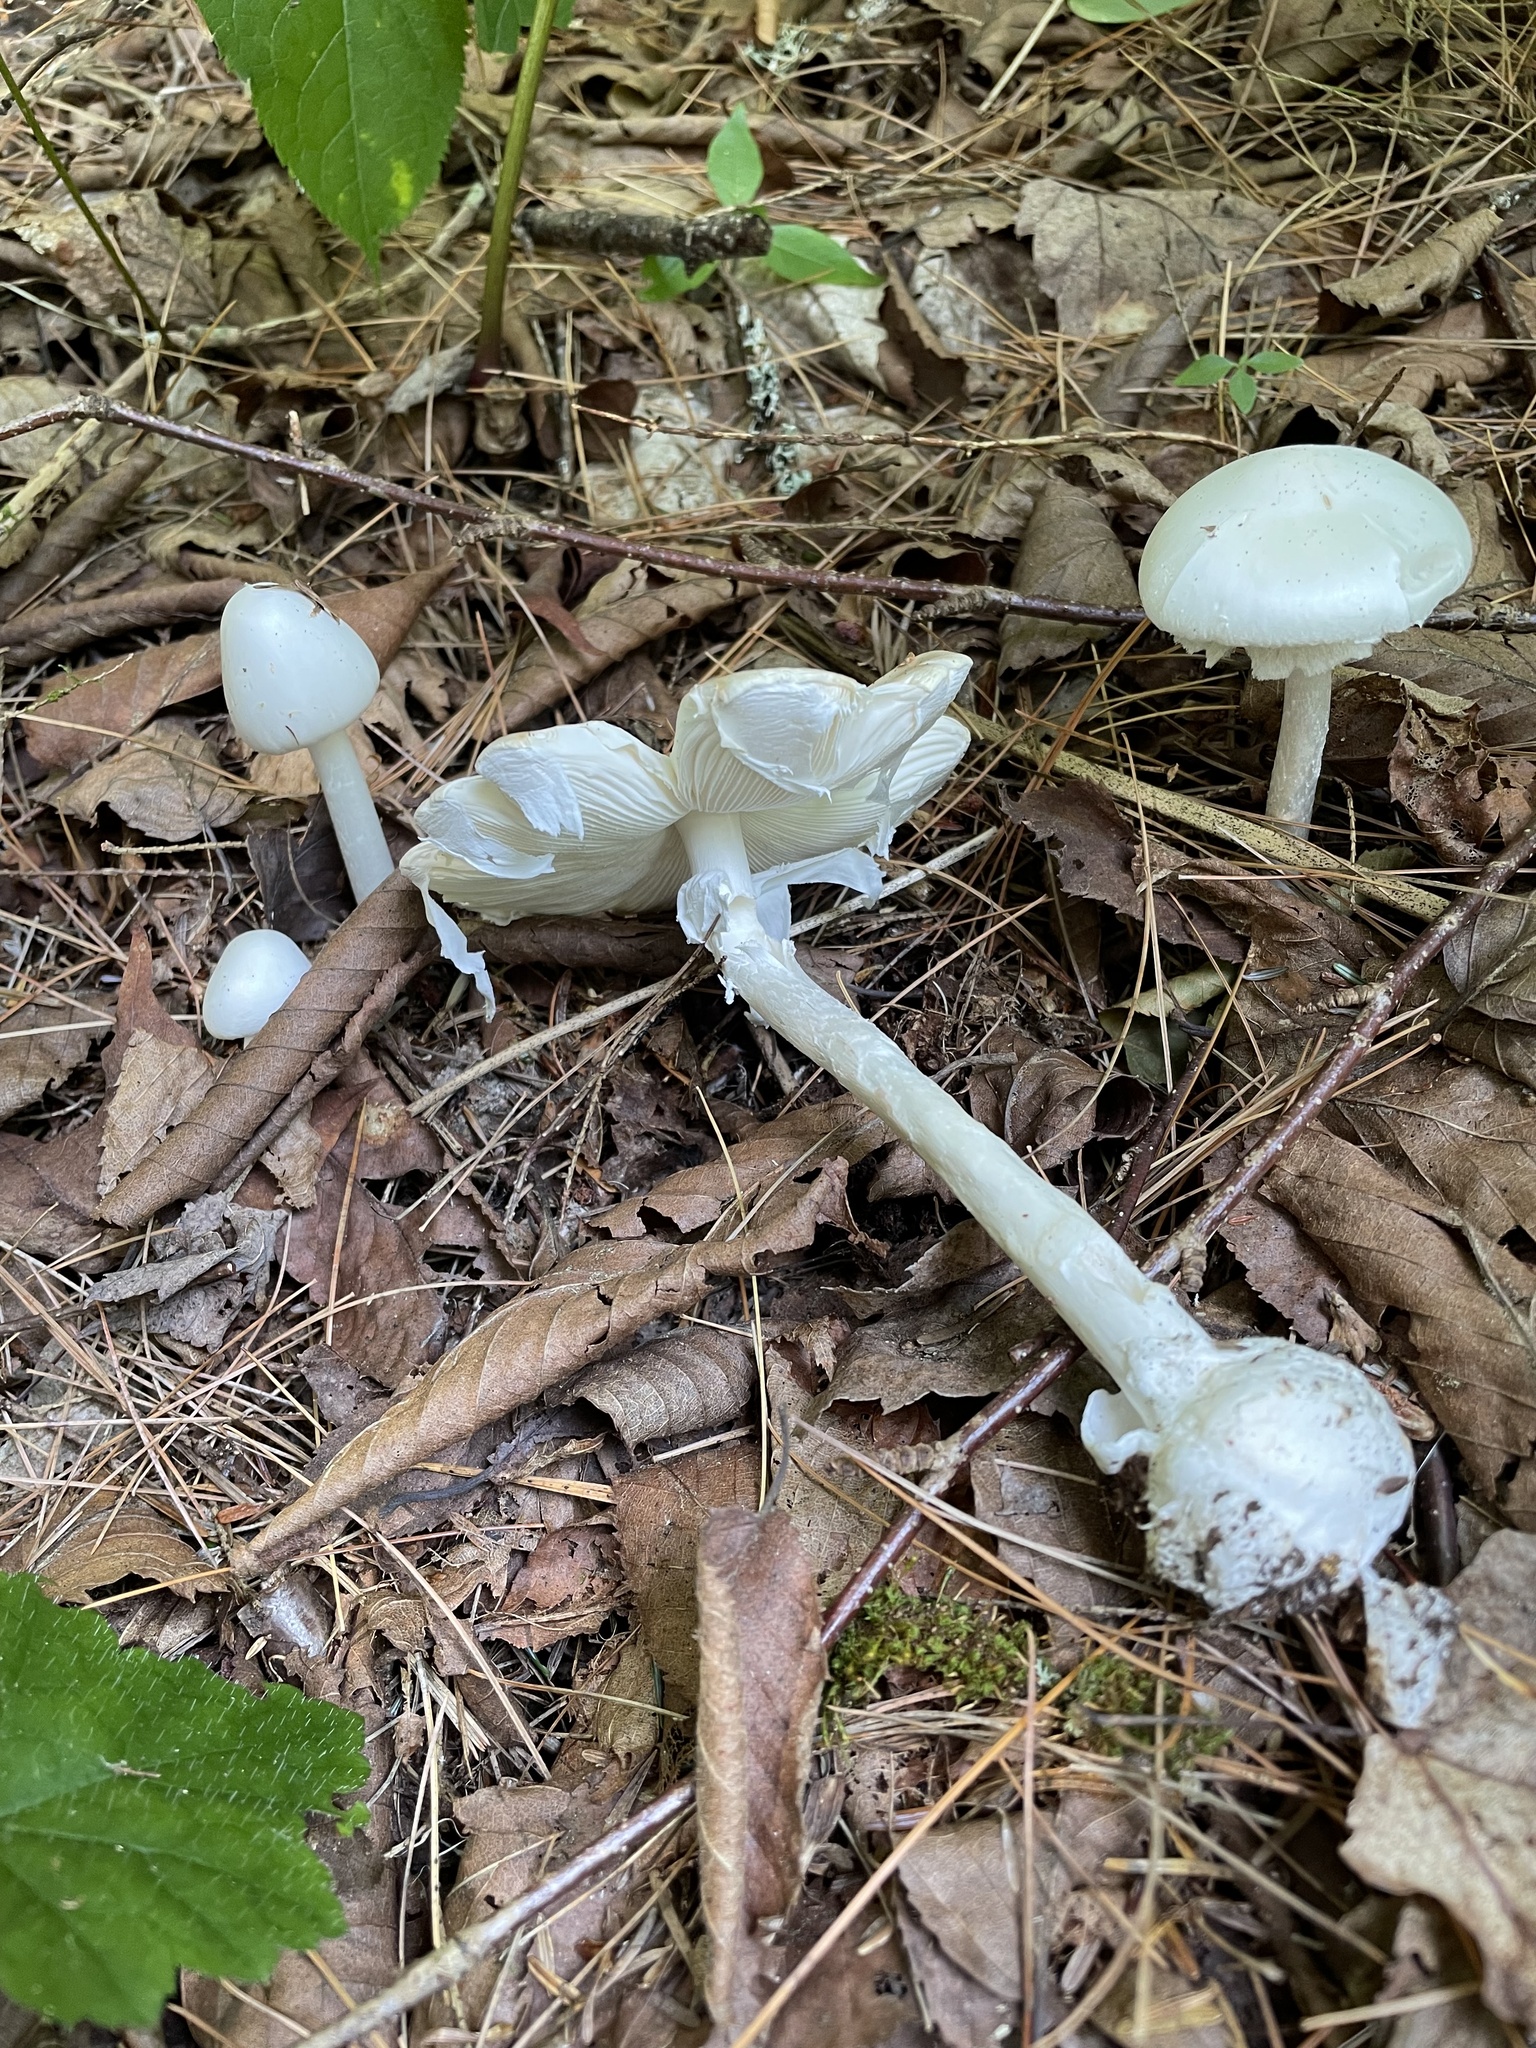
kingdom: Fungi
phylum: Basidiomycota
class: Agaricomycetes
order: Agaricales
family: Amanitaceae
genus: Amanita
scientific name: Amanita bisporigera
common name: Eastern north american destroying angel
